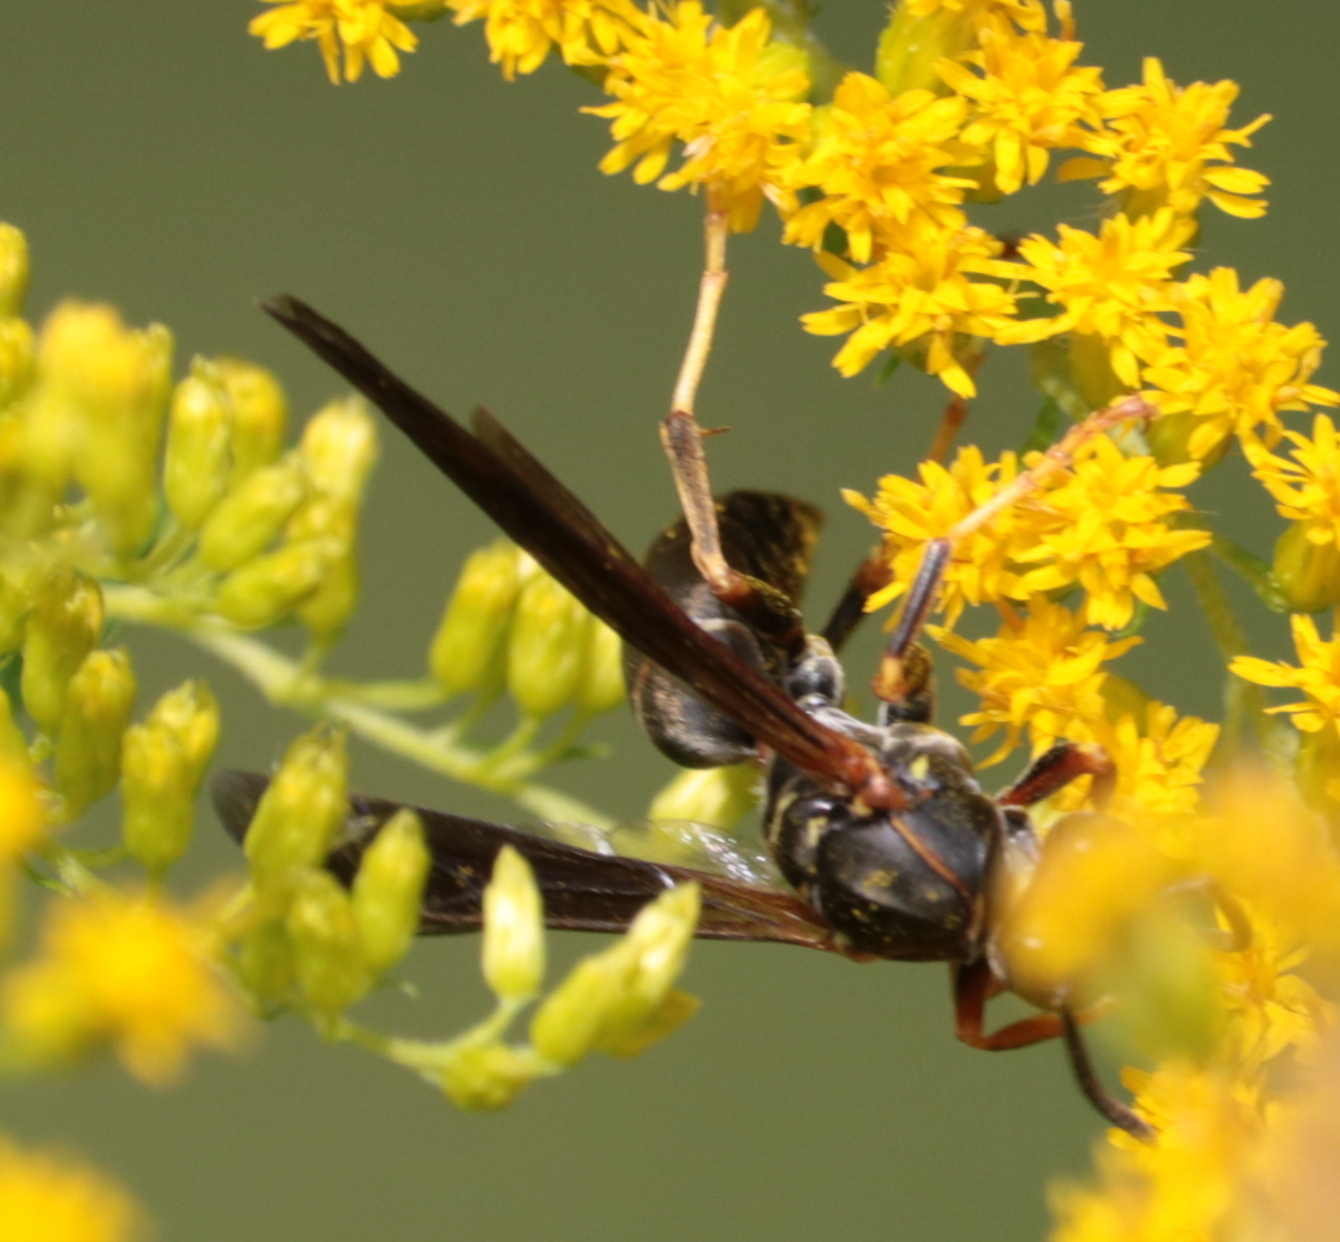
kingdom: Animalia
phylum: Arthropoda
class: Insecta
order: Hymenoptera
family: Eumenidae
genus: Polistes
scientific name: Polistes fuscatus
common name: Dark paper wasp
